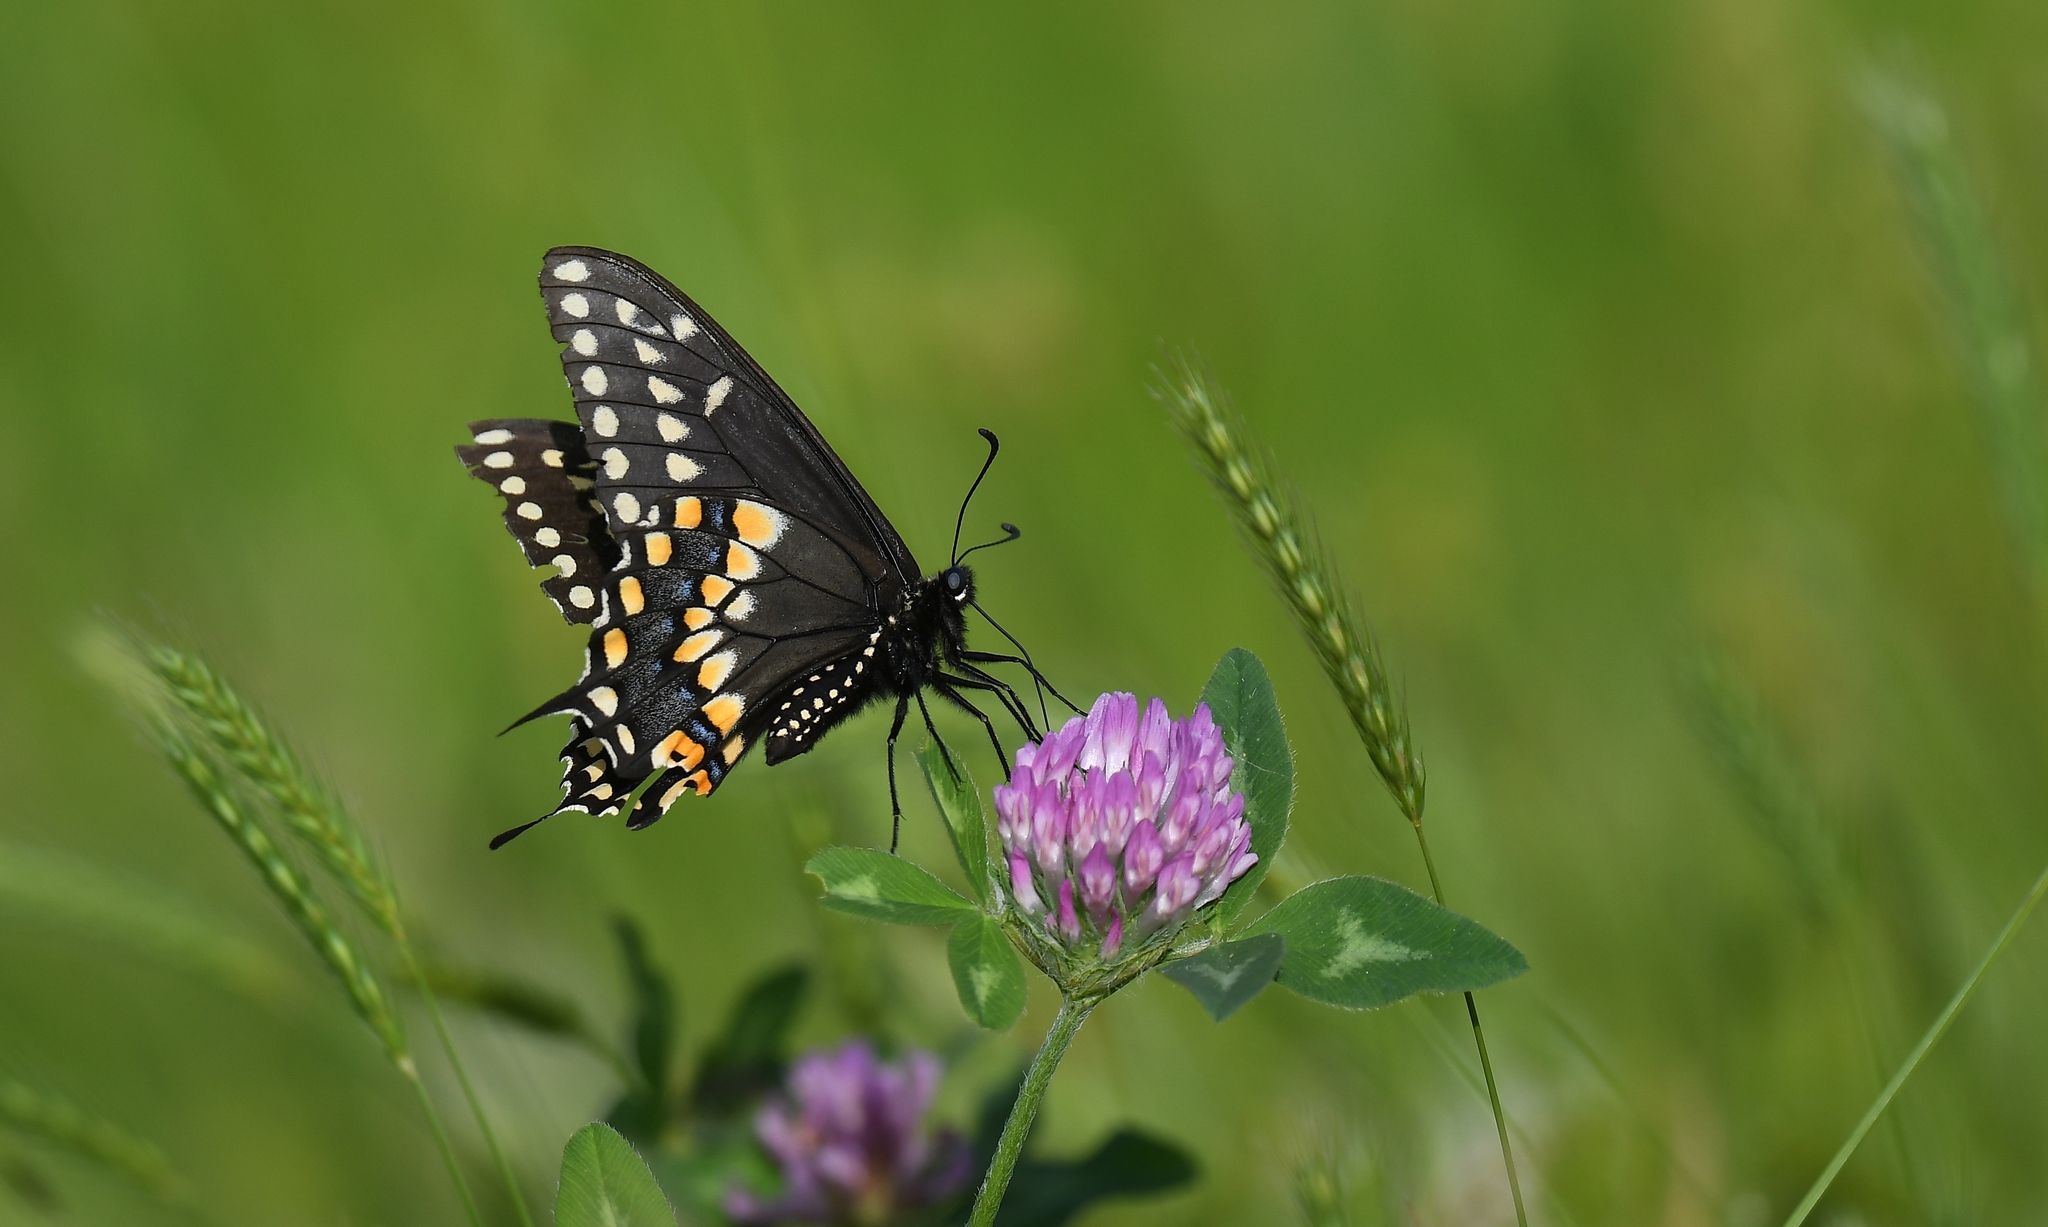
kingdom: Animalia
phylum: Arthropoda
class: Insecta
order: Lepidoptera
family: Papilionidae
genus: Papilio
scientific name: Papilio polyxenes
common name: Black swallowtail
